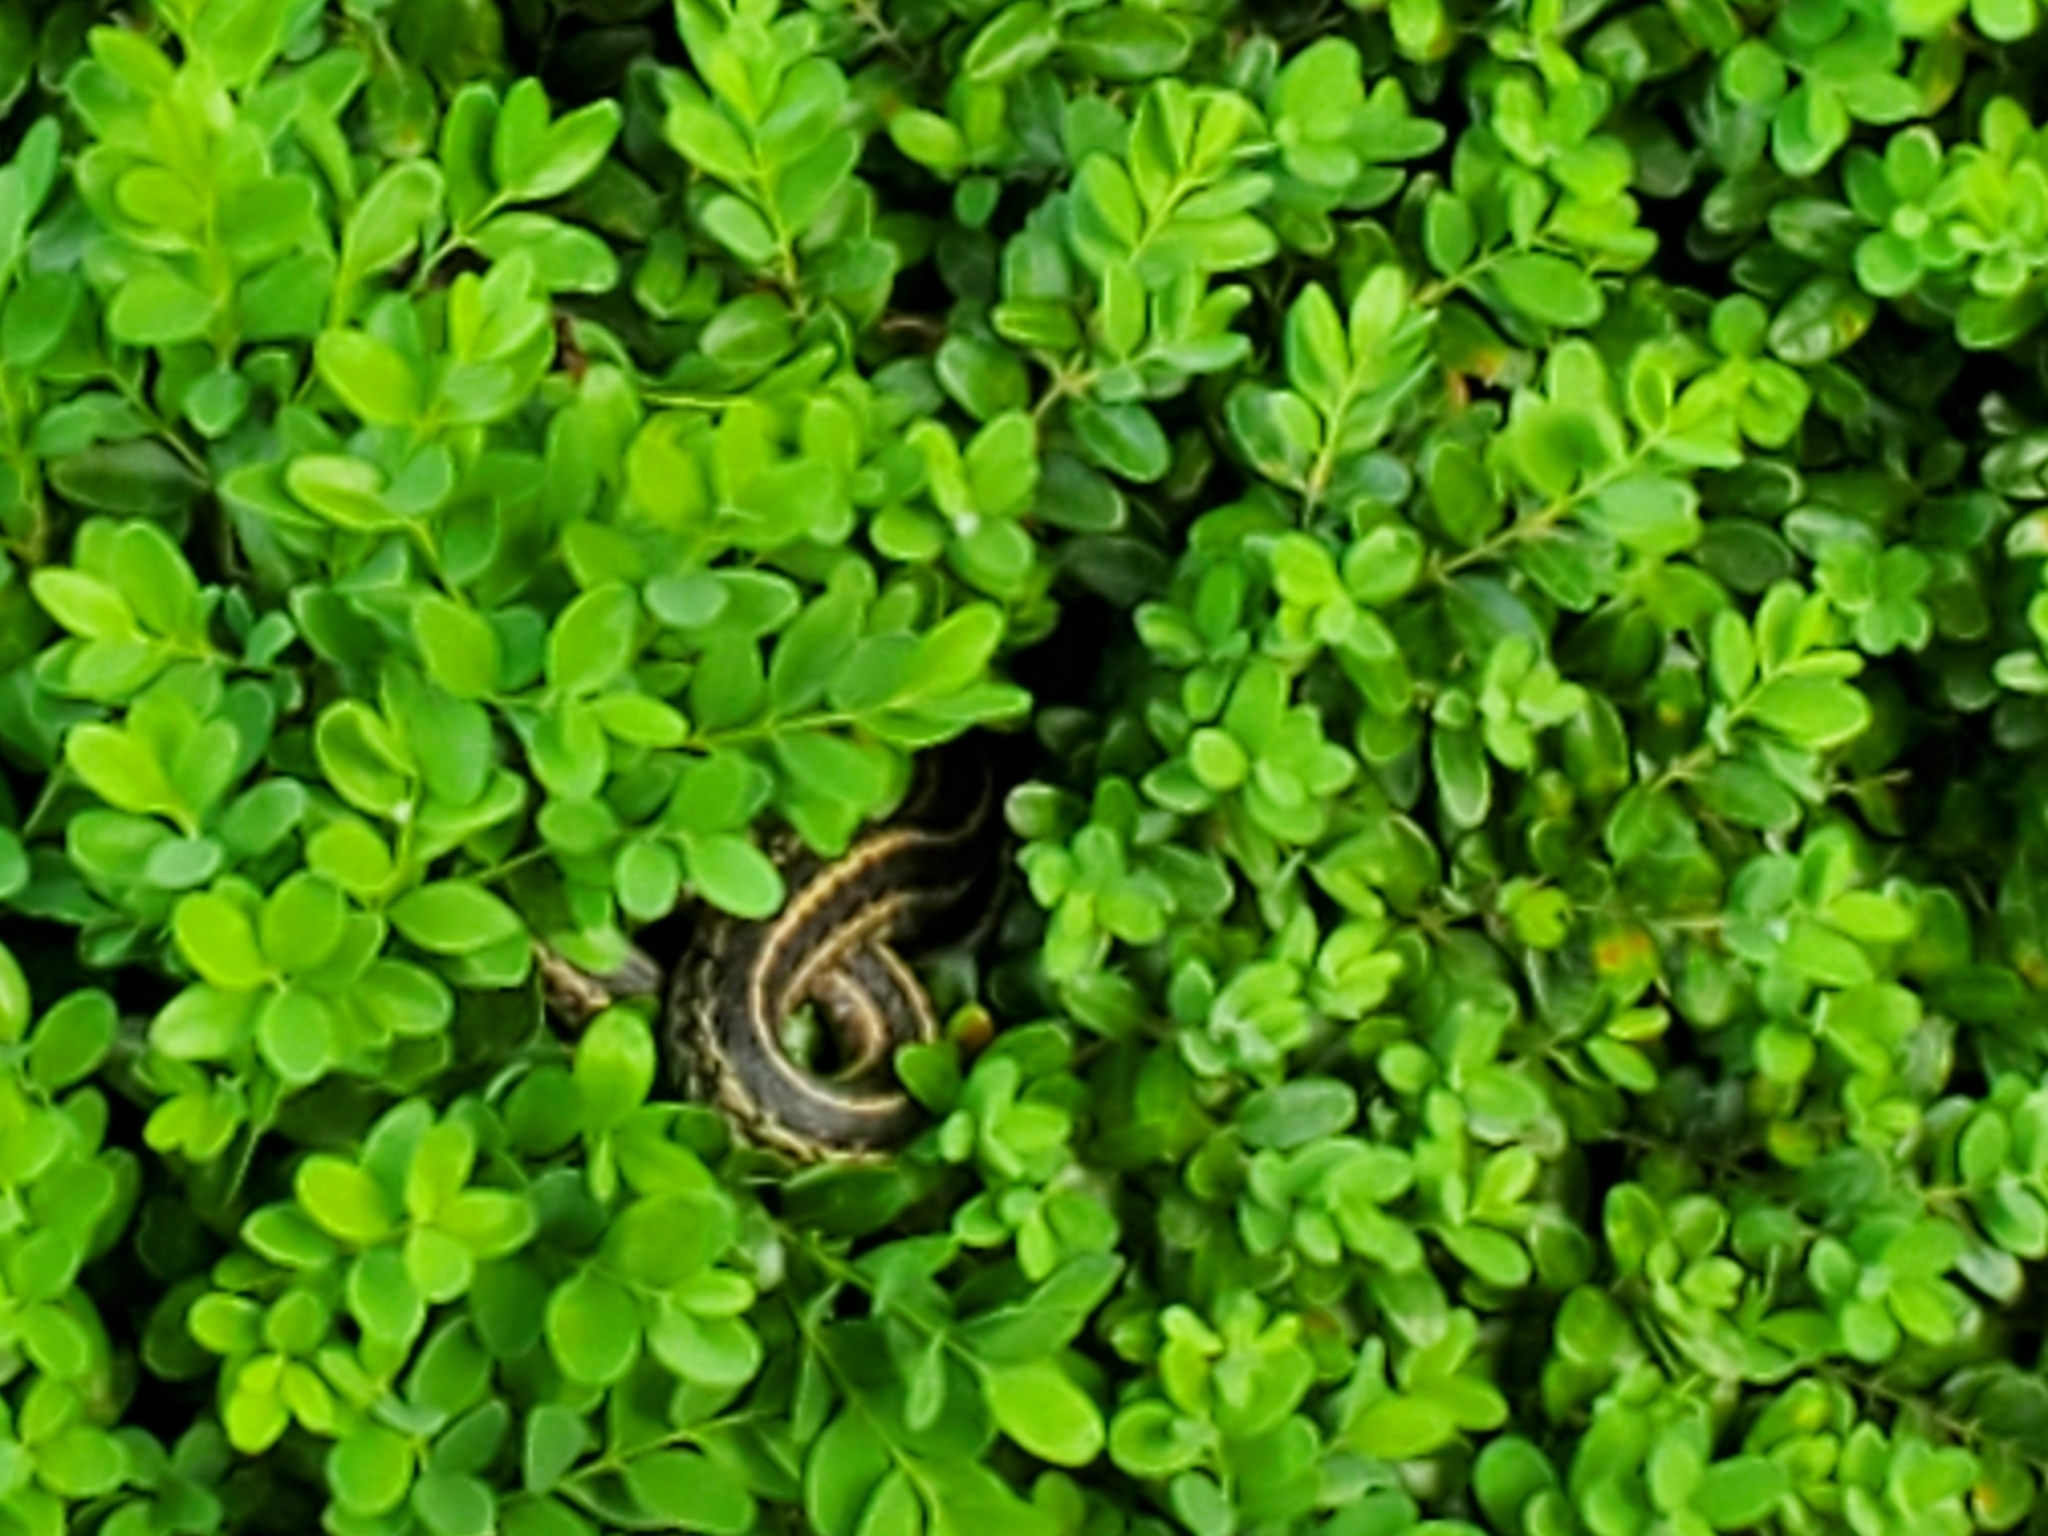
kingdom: Animalia
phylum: Chordata
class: Squamata
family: Colubridae
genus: Thamnophis
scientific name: Thamnophis sirtalis
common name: Common garter snake
